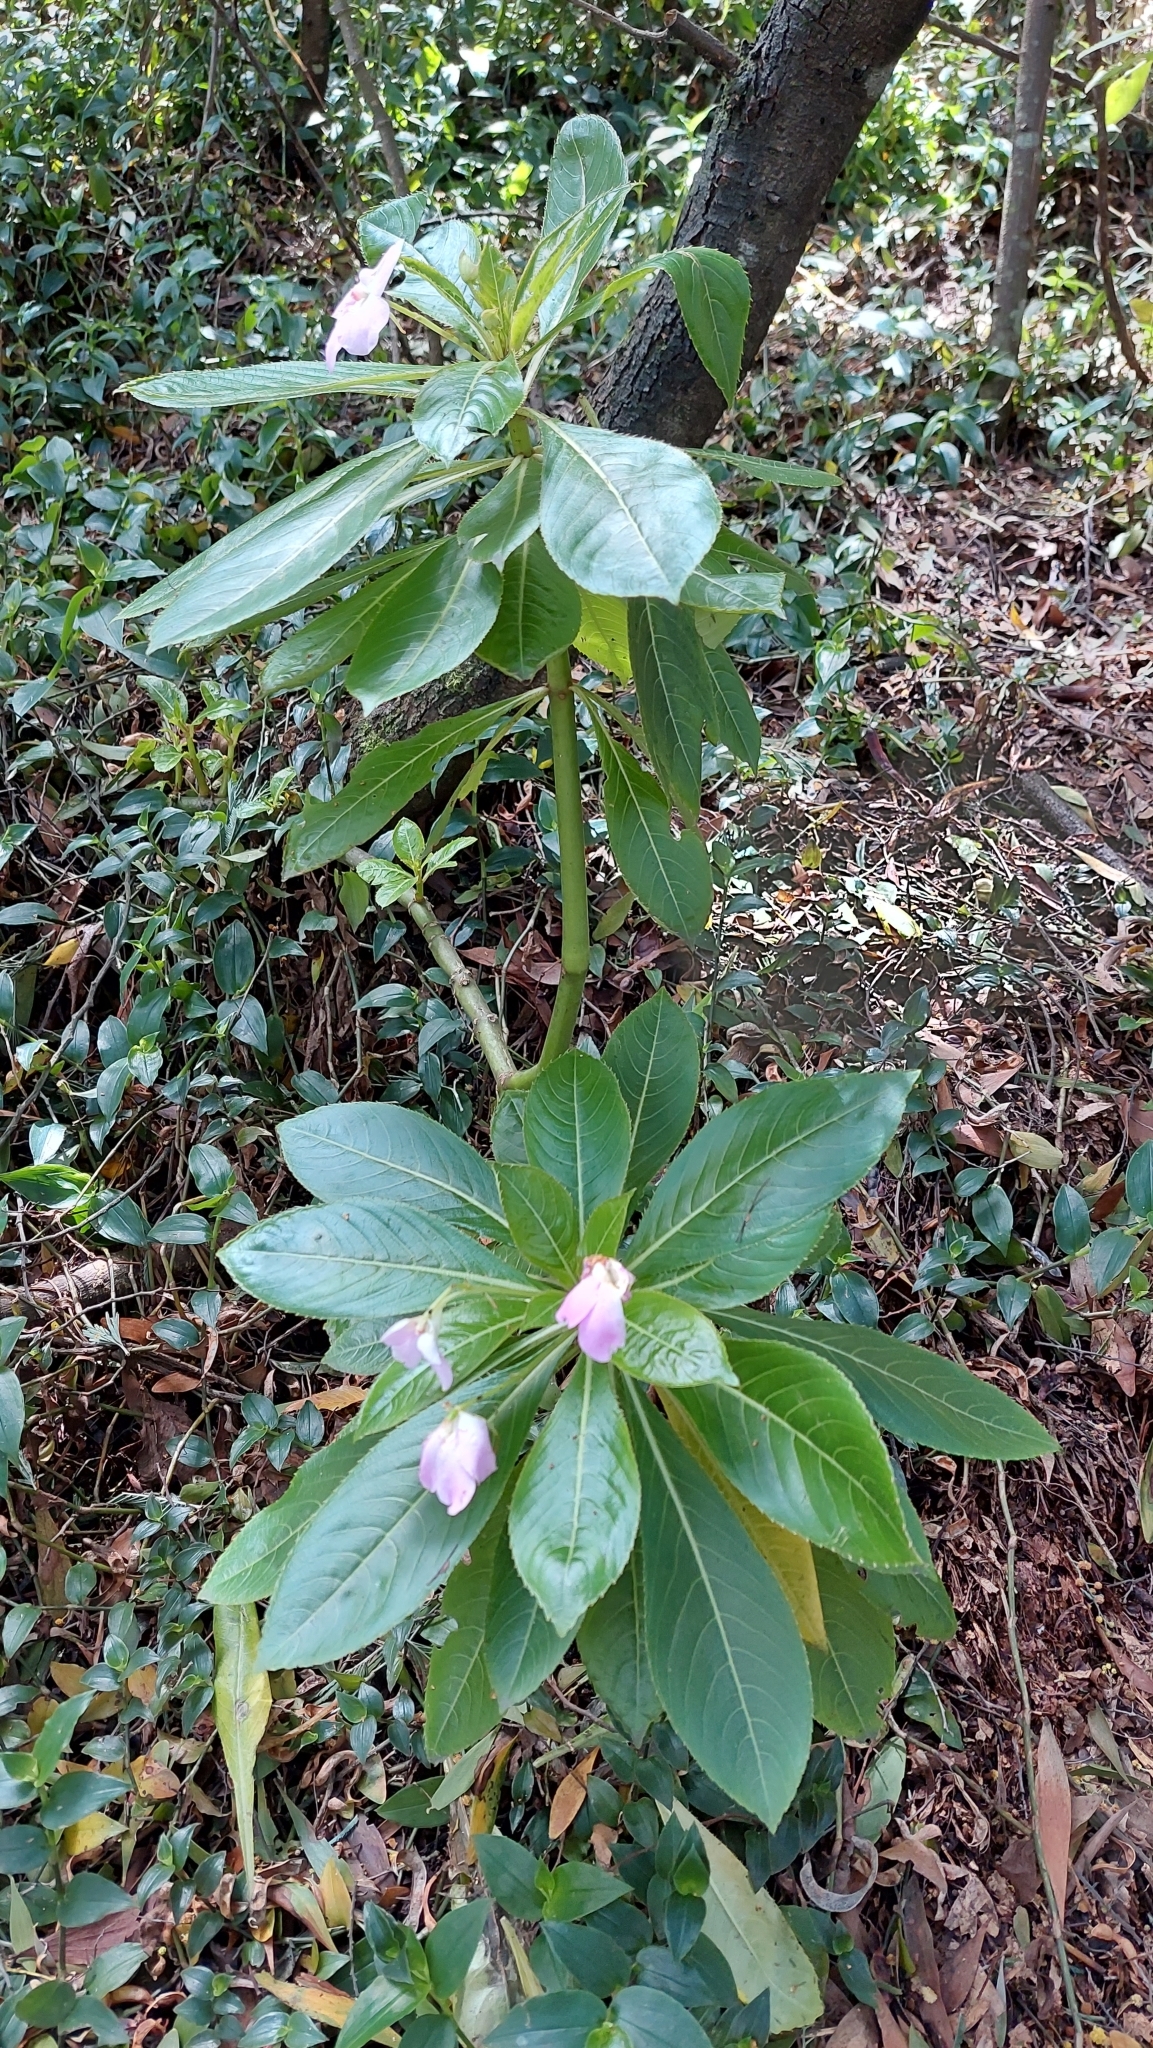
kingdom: Plantae
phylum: Tracheophyta
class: Magnoliopsida
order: Ericales
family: Balsaminaceae
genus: Impatiens
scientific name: Impatiens sodenii
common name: Oliver's touch-me-not
